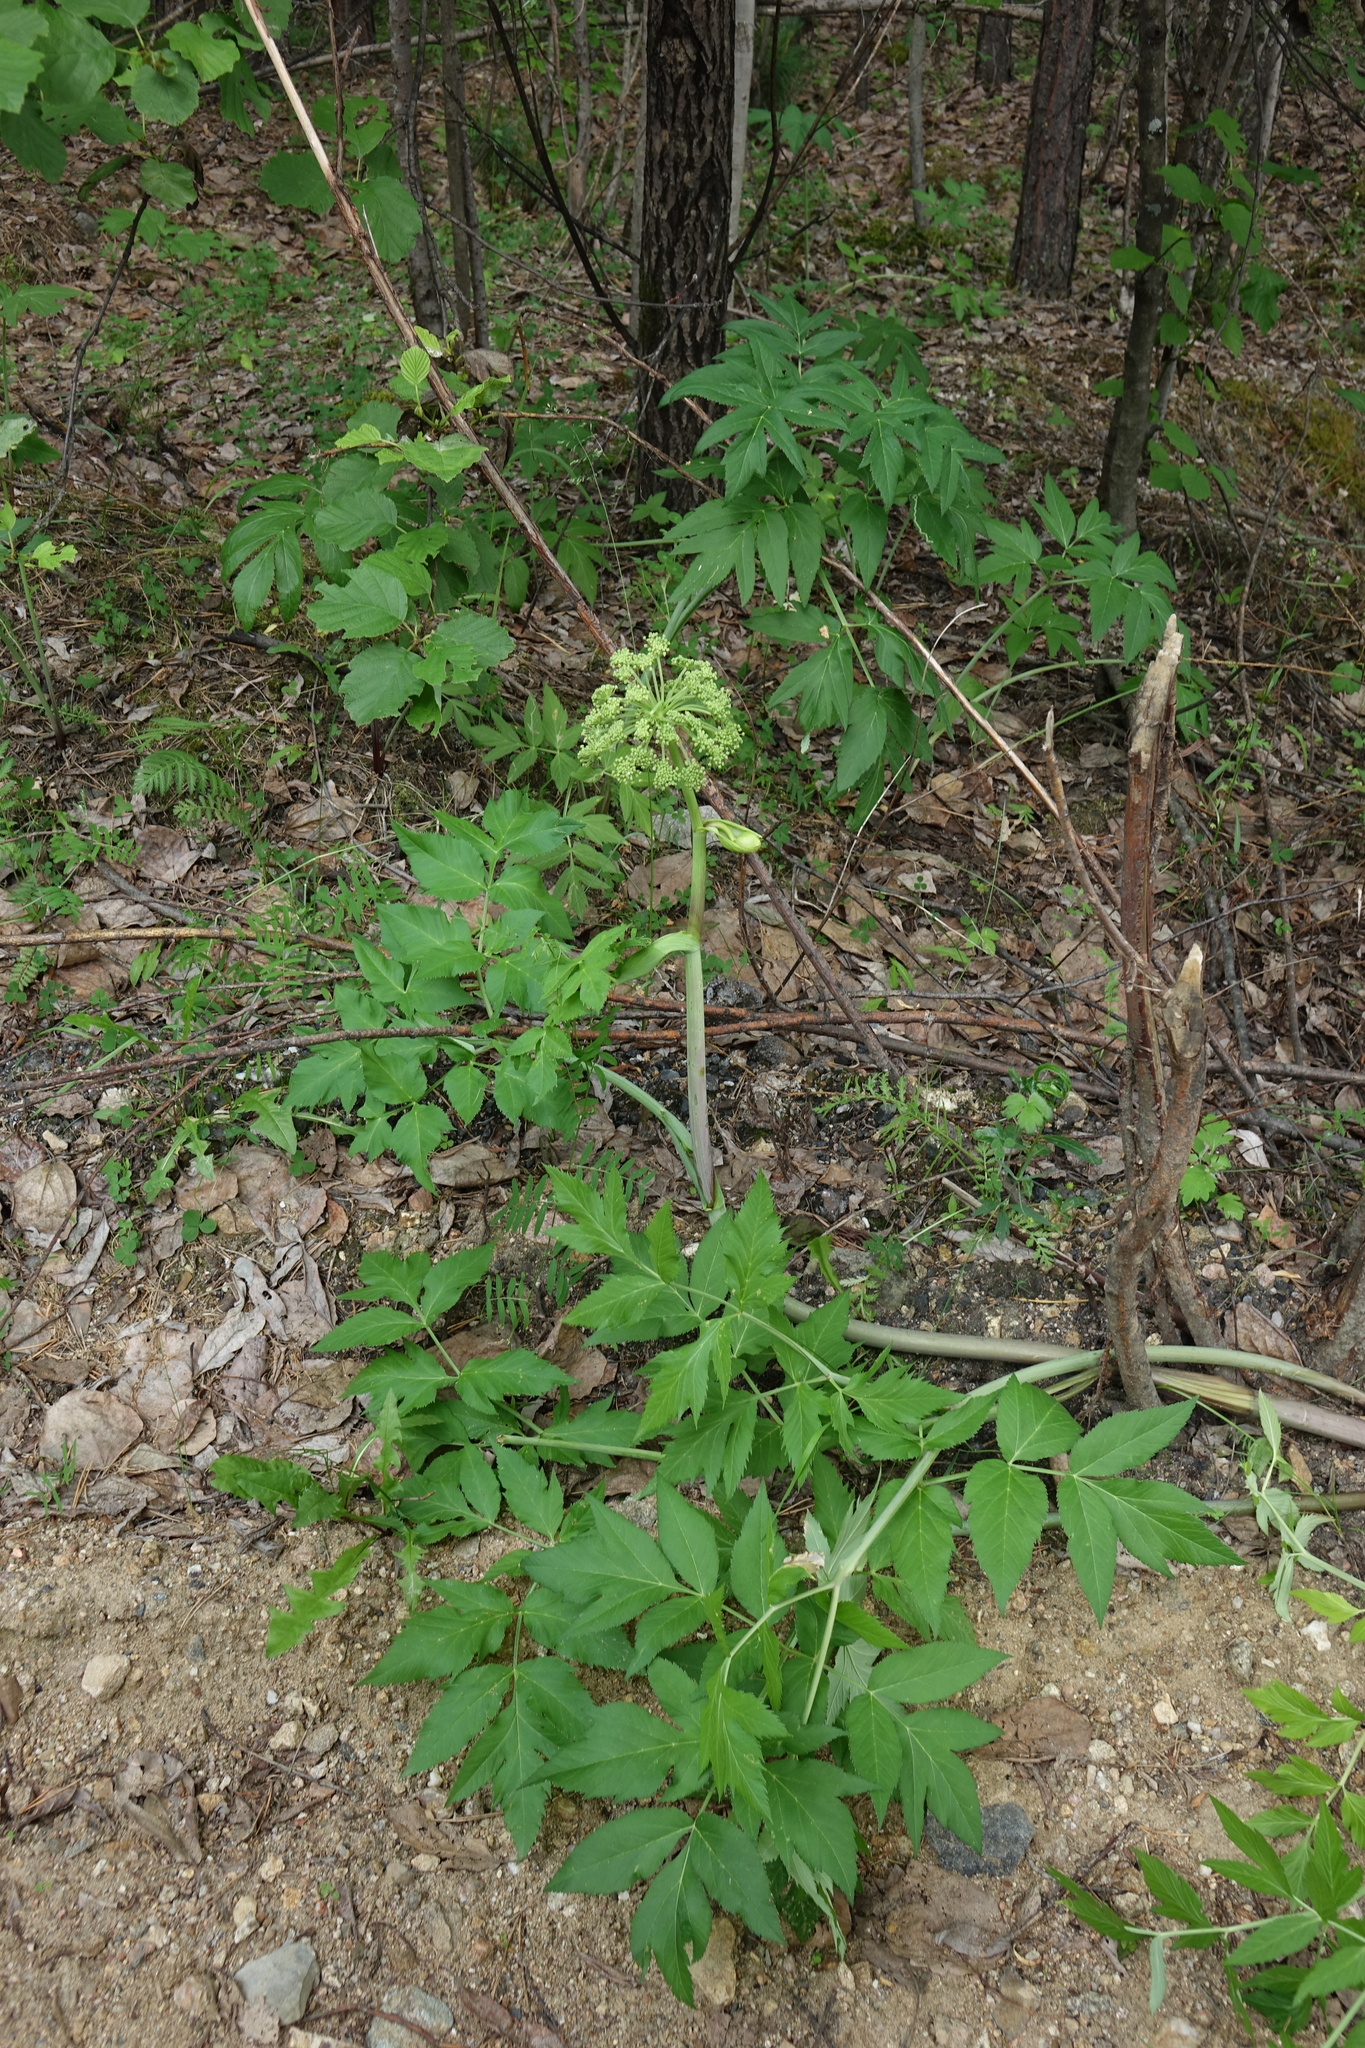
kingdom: Plantae
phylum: Tracheophyta
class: Magnoliopsida
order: Apiales
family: Apiaceae
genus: Angelica
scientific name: Angelica decurrens
